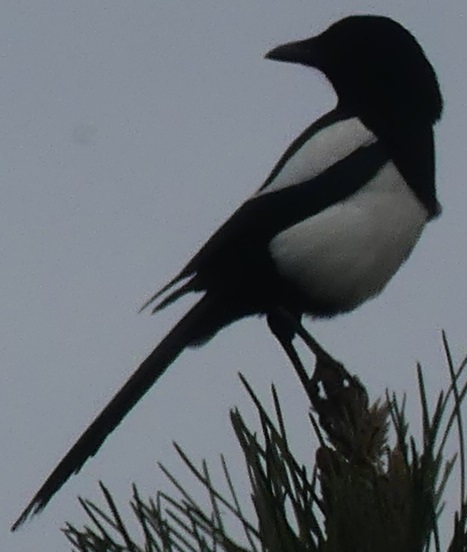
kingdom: Animalia
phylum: Chordata
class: Aves
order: Passeriformes
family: Corvidae
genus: Pica
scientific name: Pica pica
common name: Eurasian magpie
